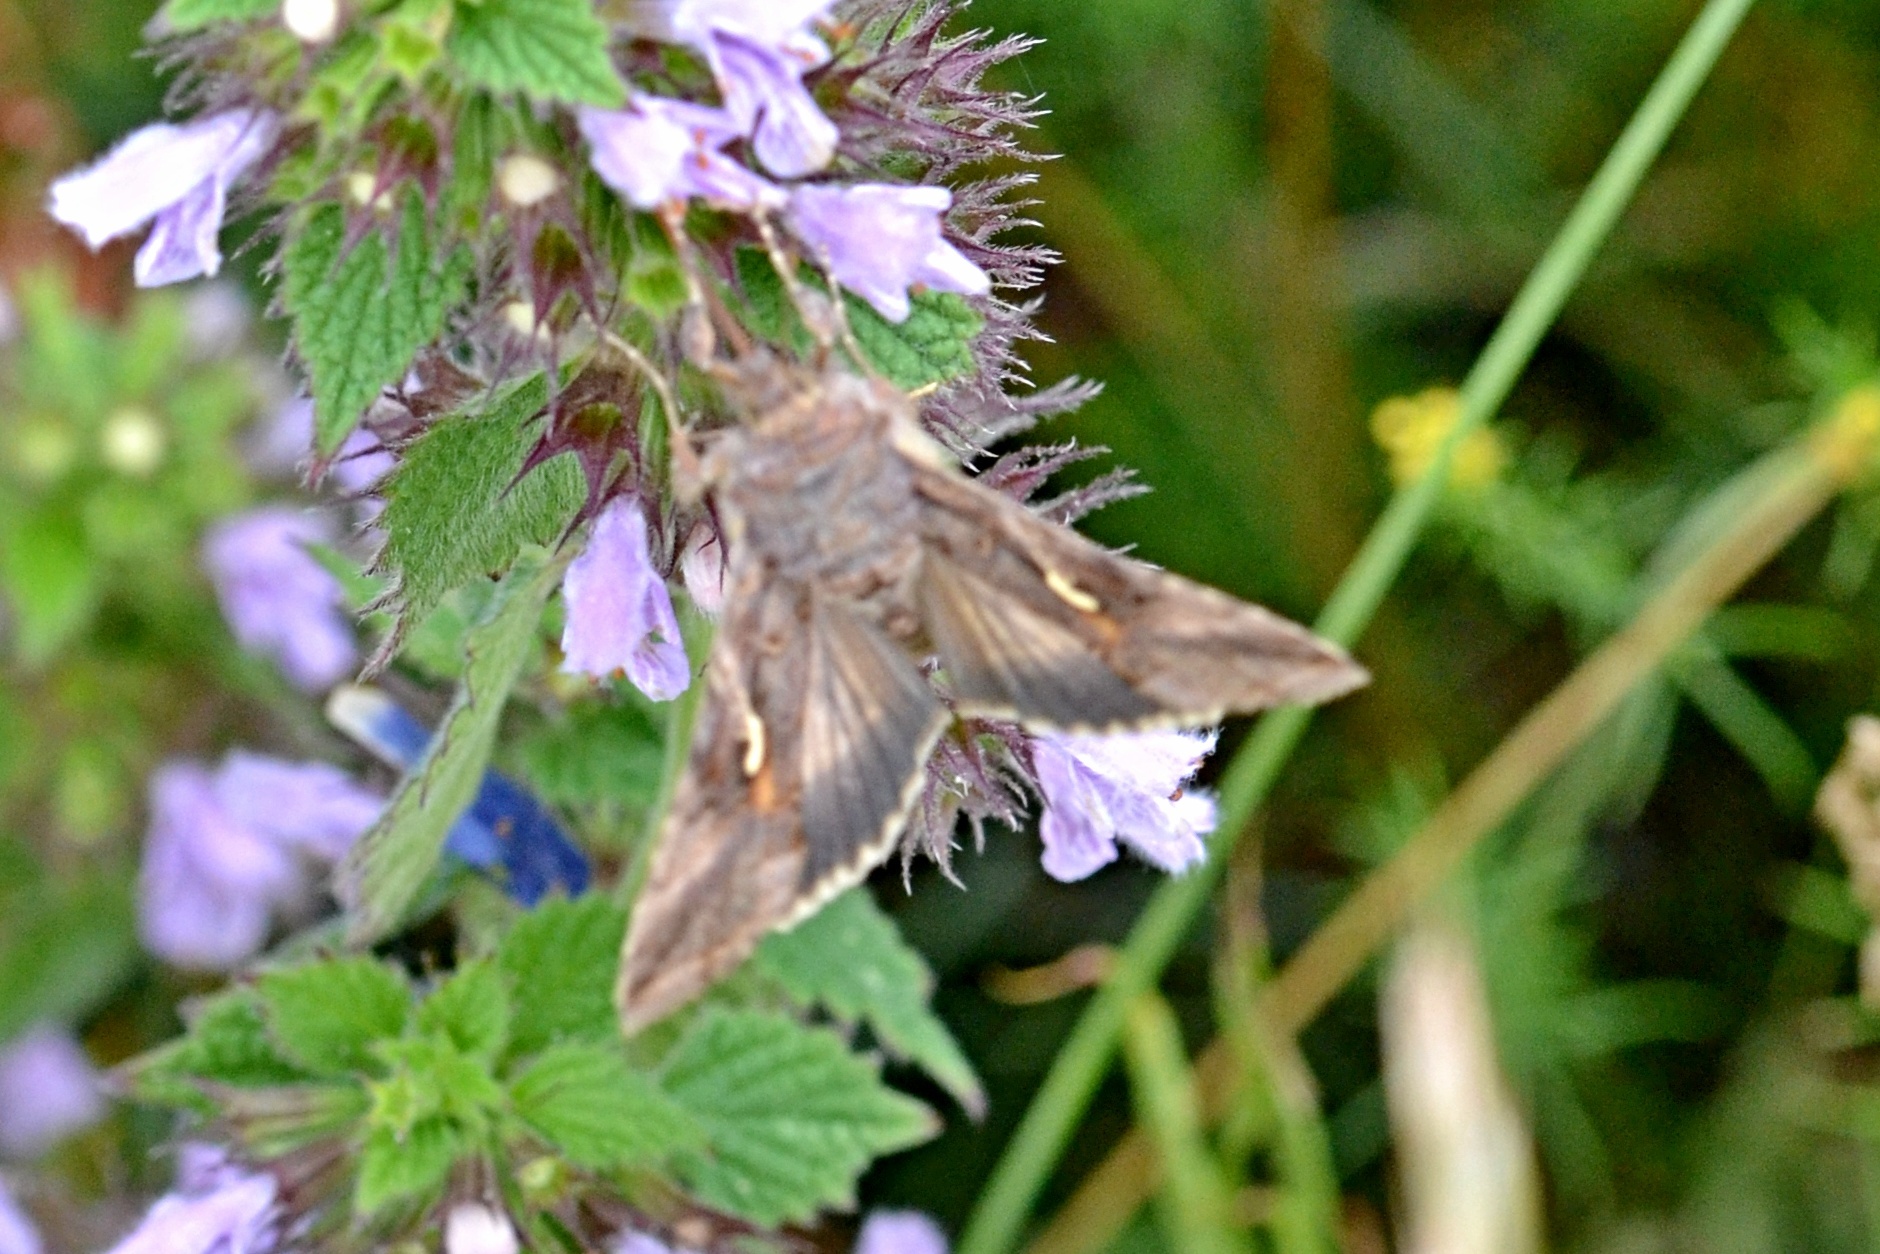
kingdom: Animalia
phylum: Arthropoda
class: Insecta
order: Lepidoptera
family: Noctuidae
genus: Autographa
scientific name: Autographa gamma
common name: Silver y
